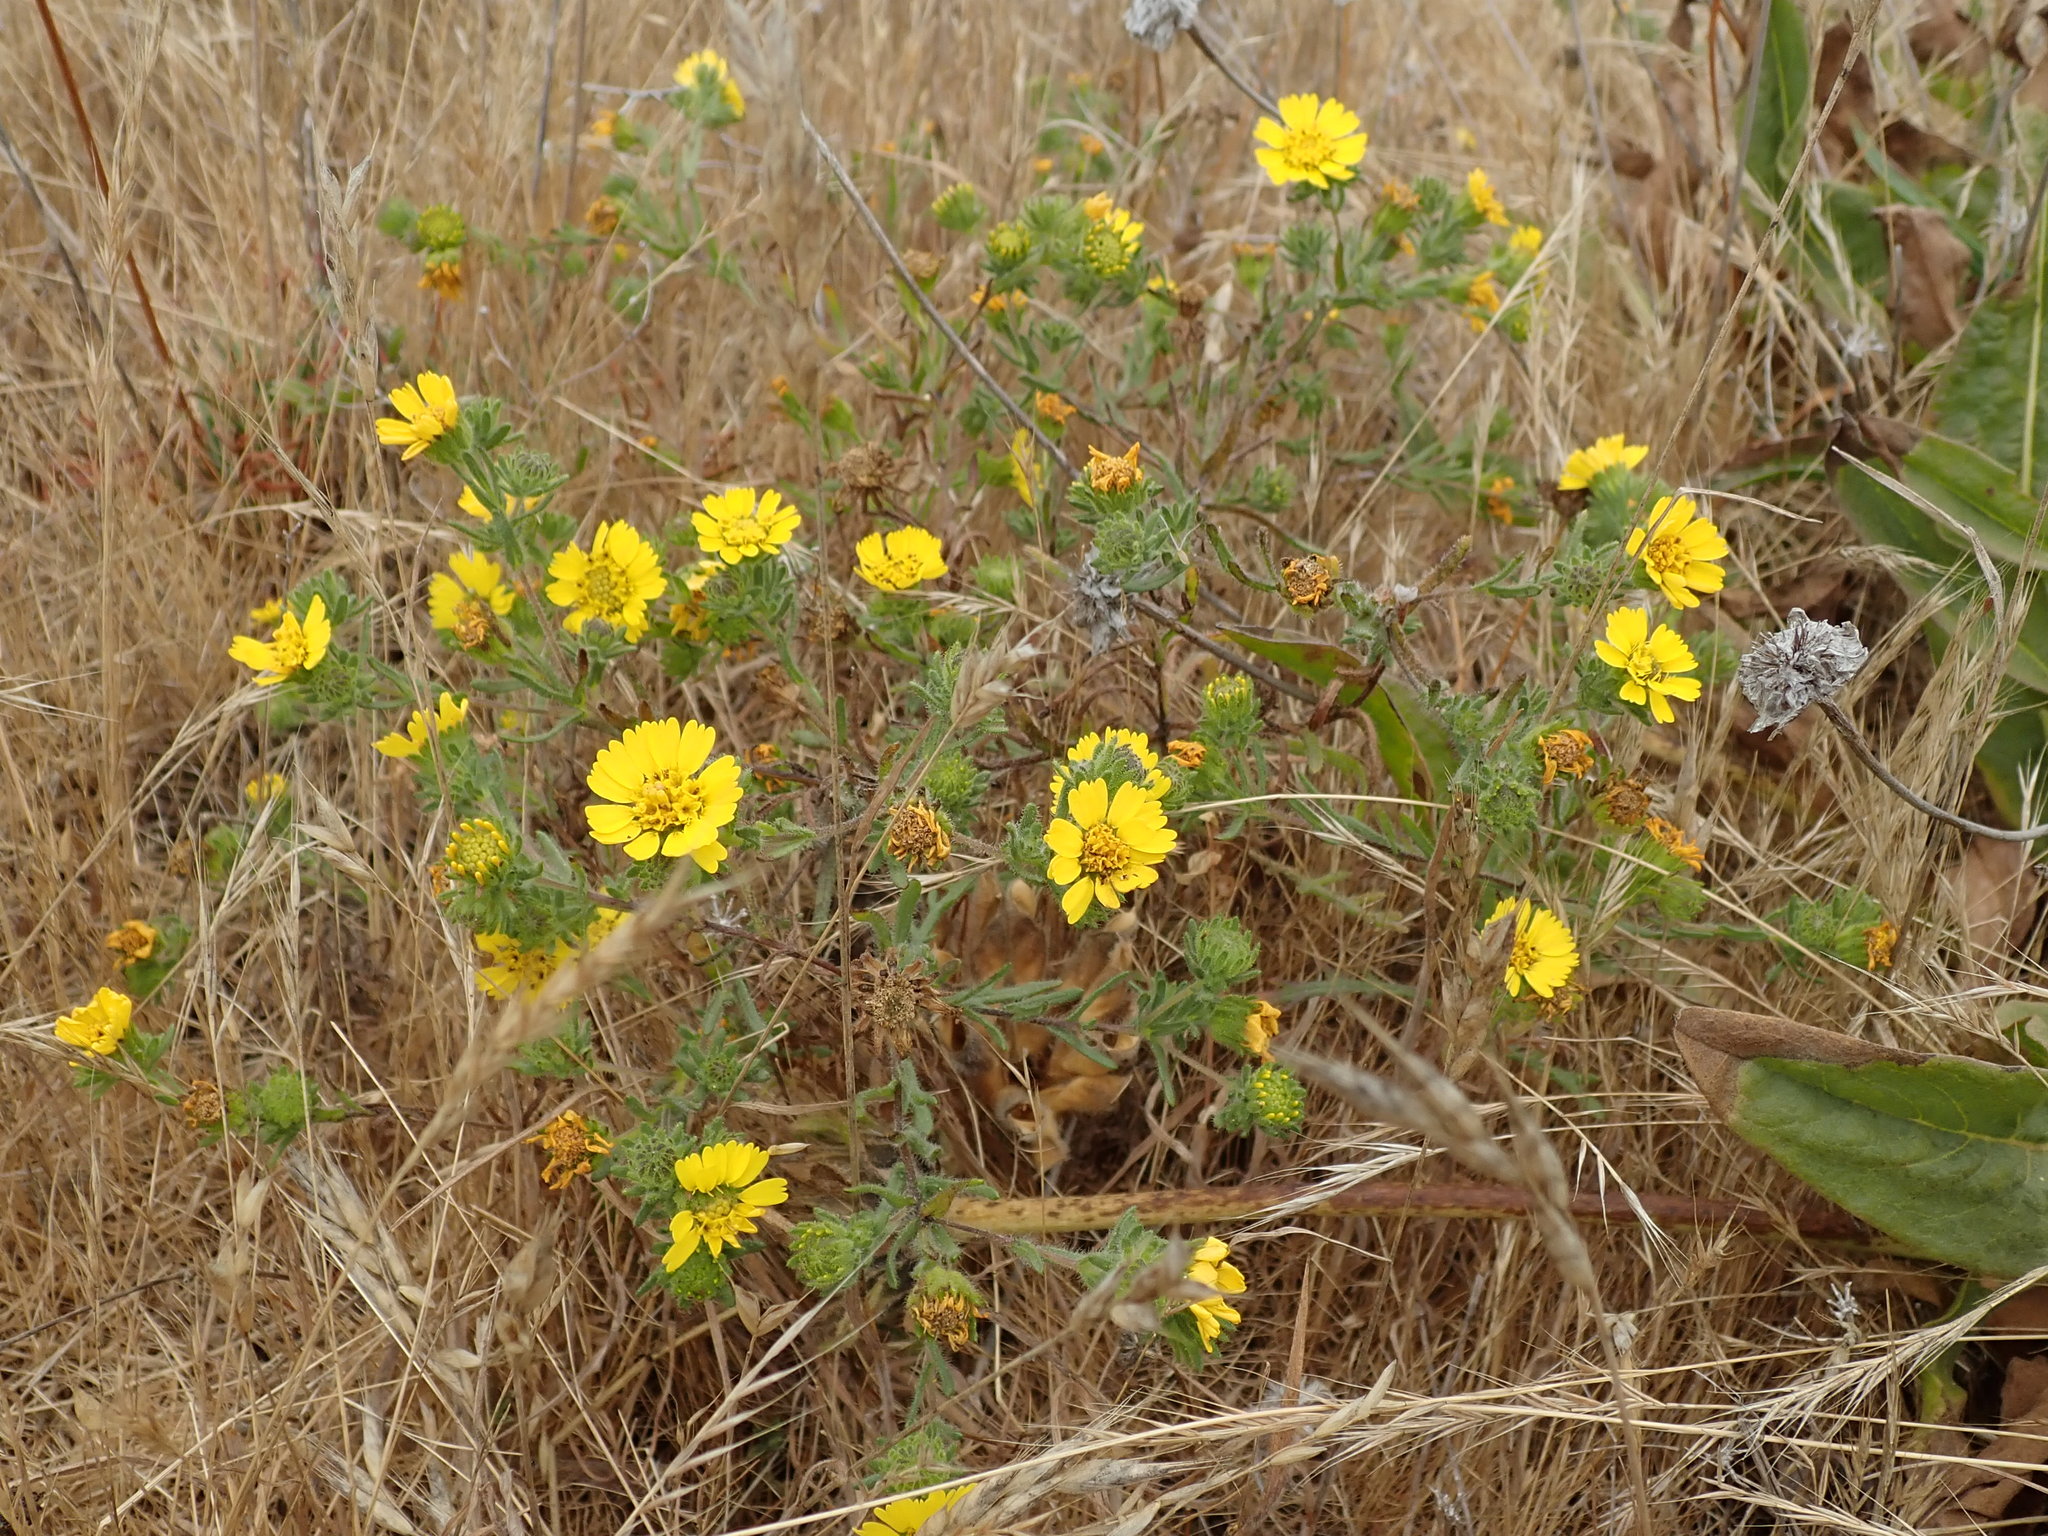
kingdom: Plantae
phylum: Tracheophyta
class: Magnoliopsida
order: Asterales
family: Asteraceae
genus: Deinandra
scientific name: Deinandra corymbosa
